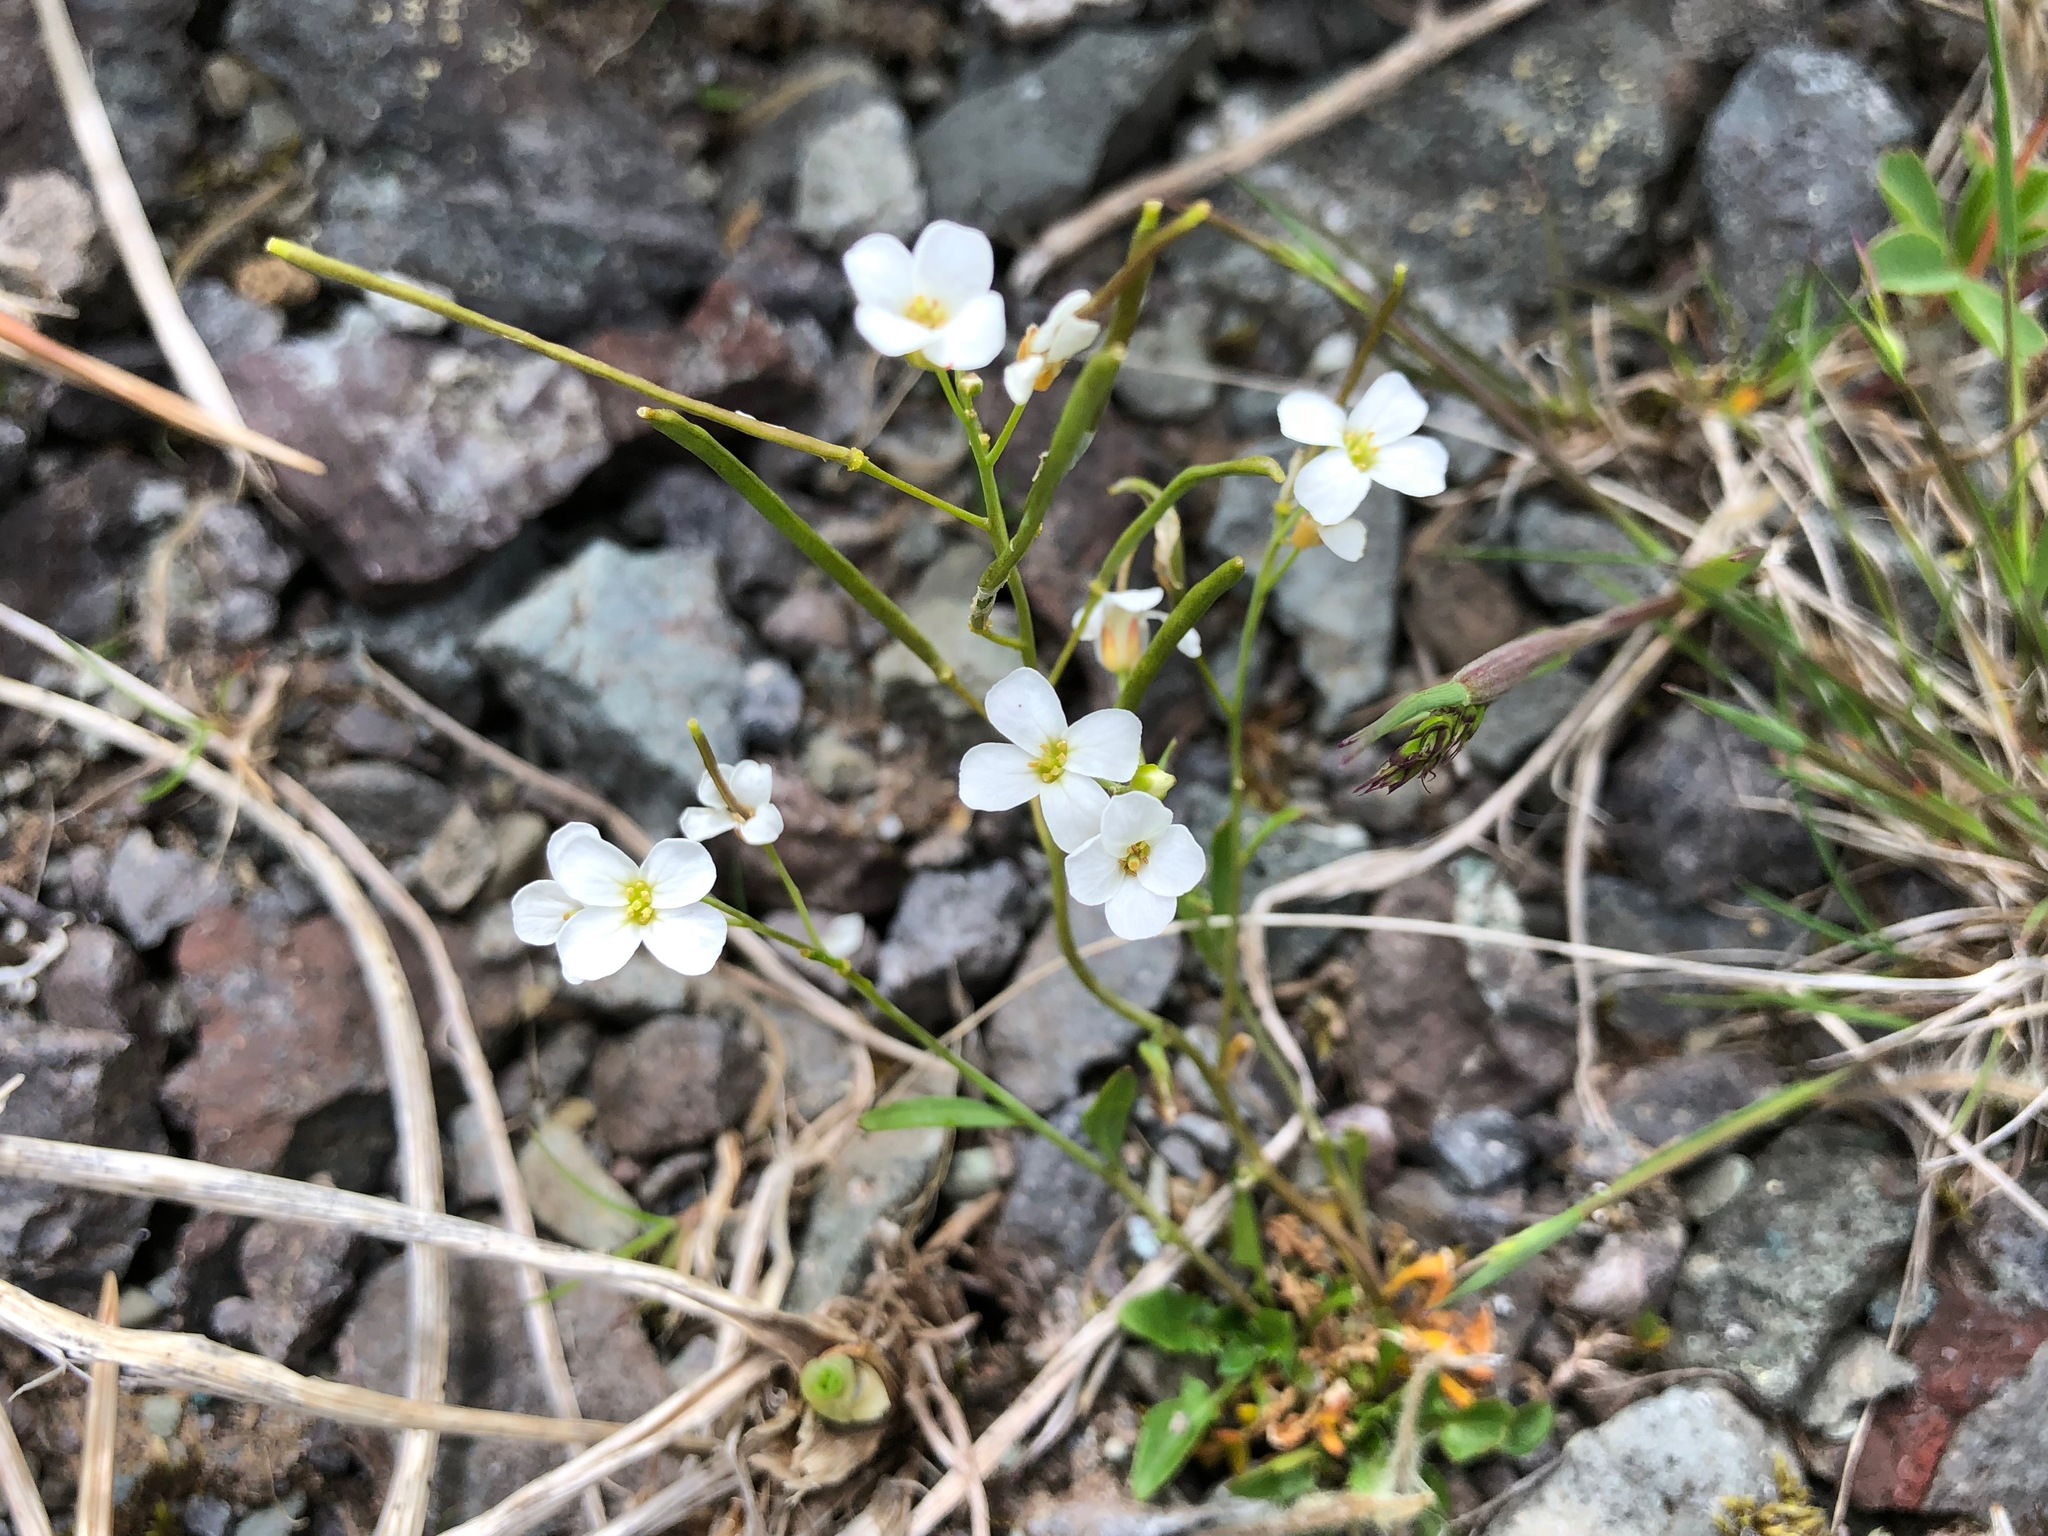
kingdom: Plantae
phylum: Tracheophyta
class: Magnoliopsida
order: Brassicales
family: Brassicaceae
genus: Arabidopsis
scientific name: Arabidopsis lyrata
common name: Lyrate rockcress
